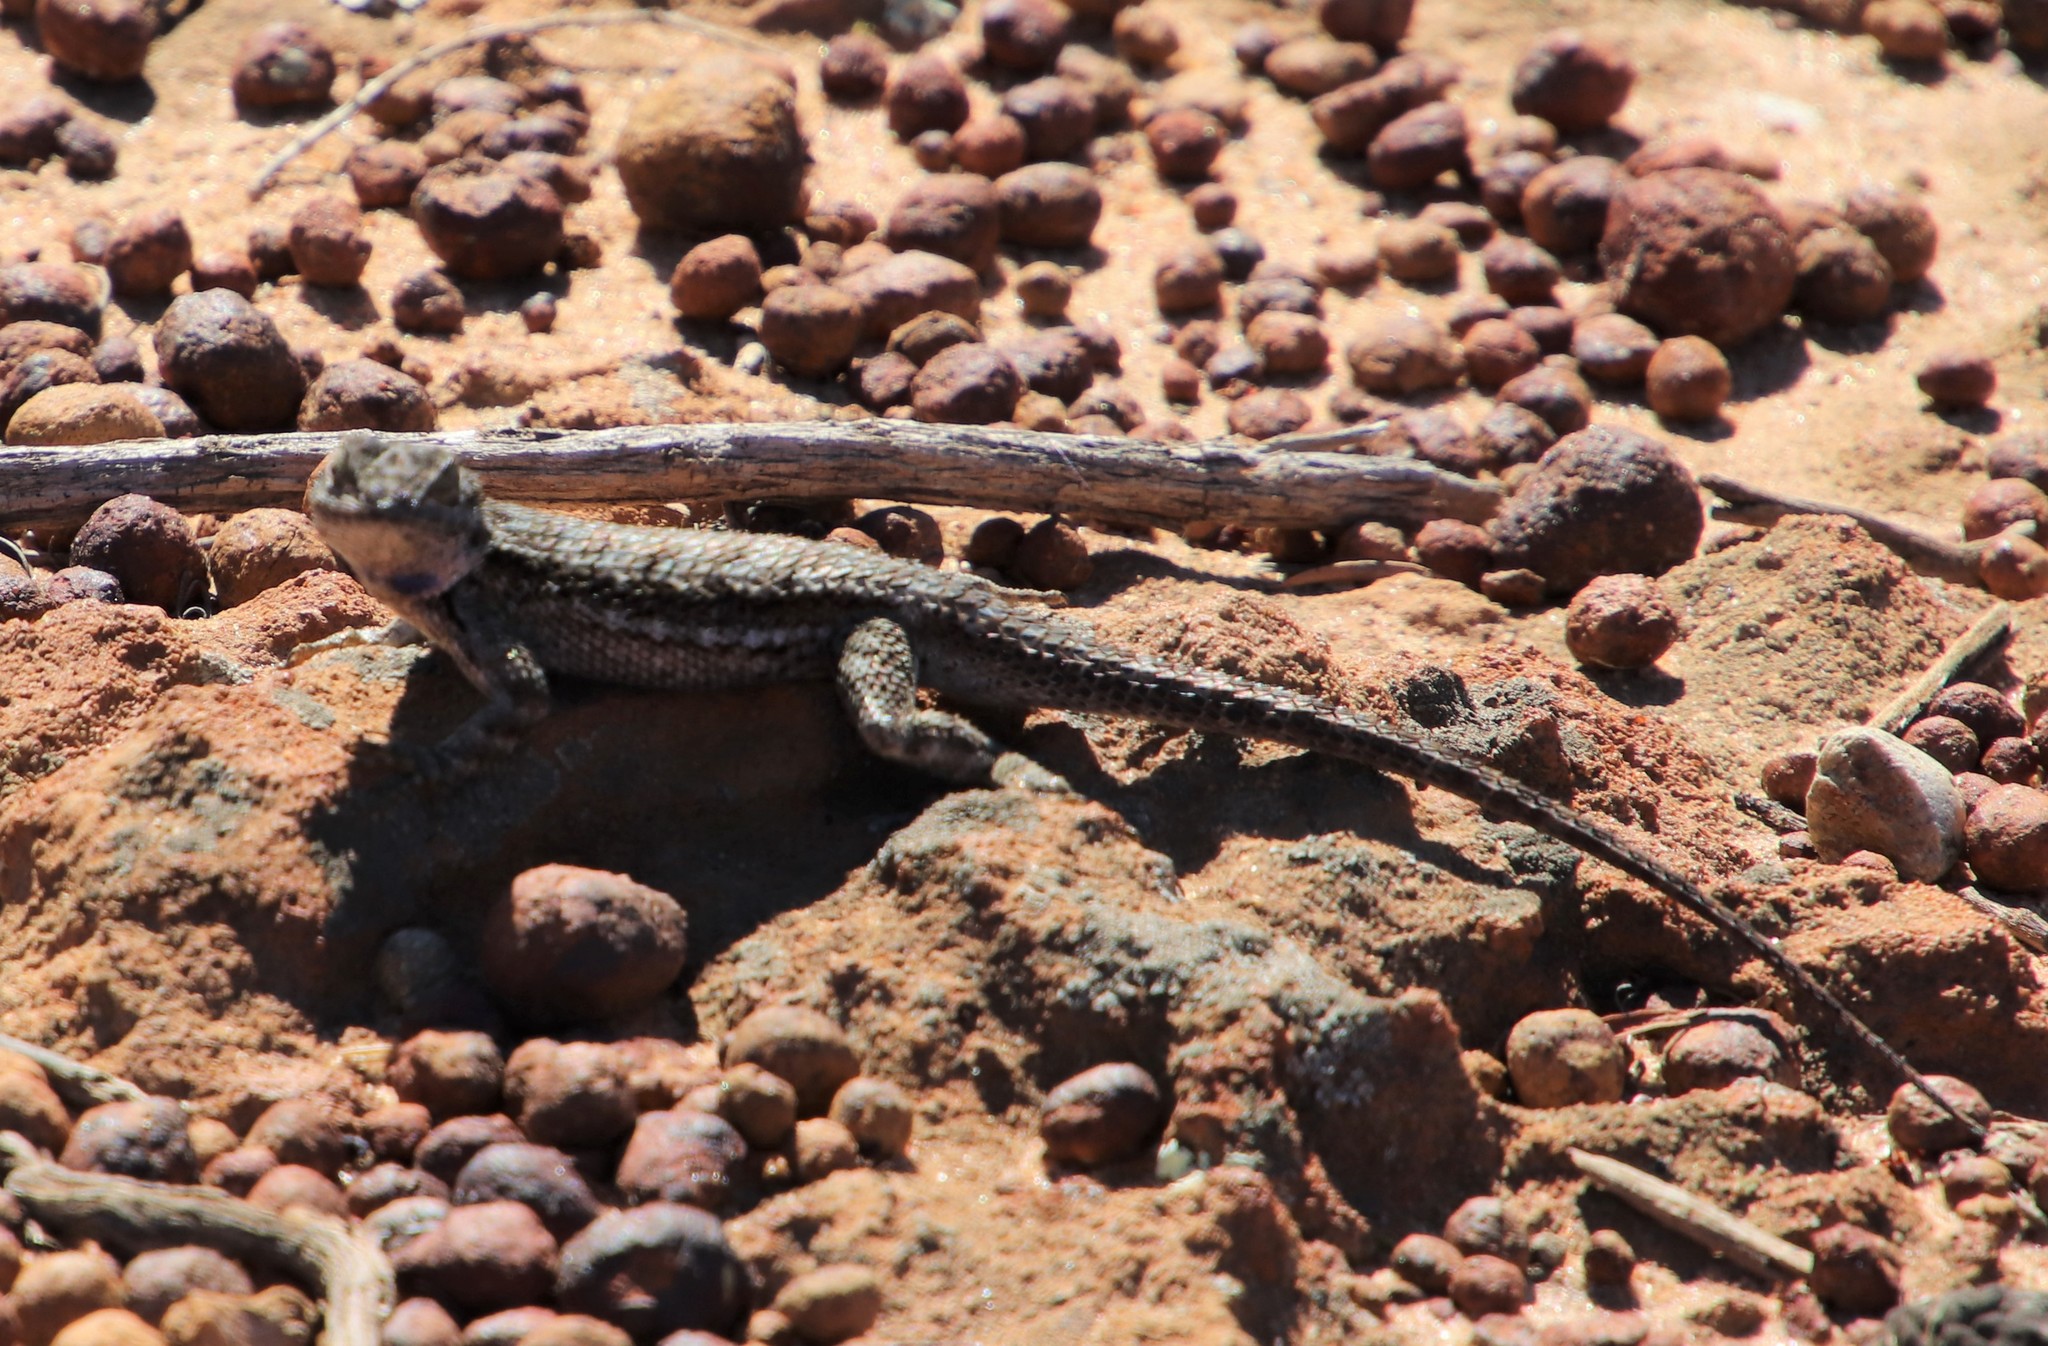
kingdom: Animalia
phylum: Chordata
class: Squamata
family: Phrynosomatidae
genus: Sceloporus
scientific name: Sceloporus occidentalis
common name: Western fence lizard
